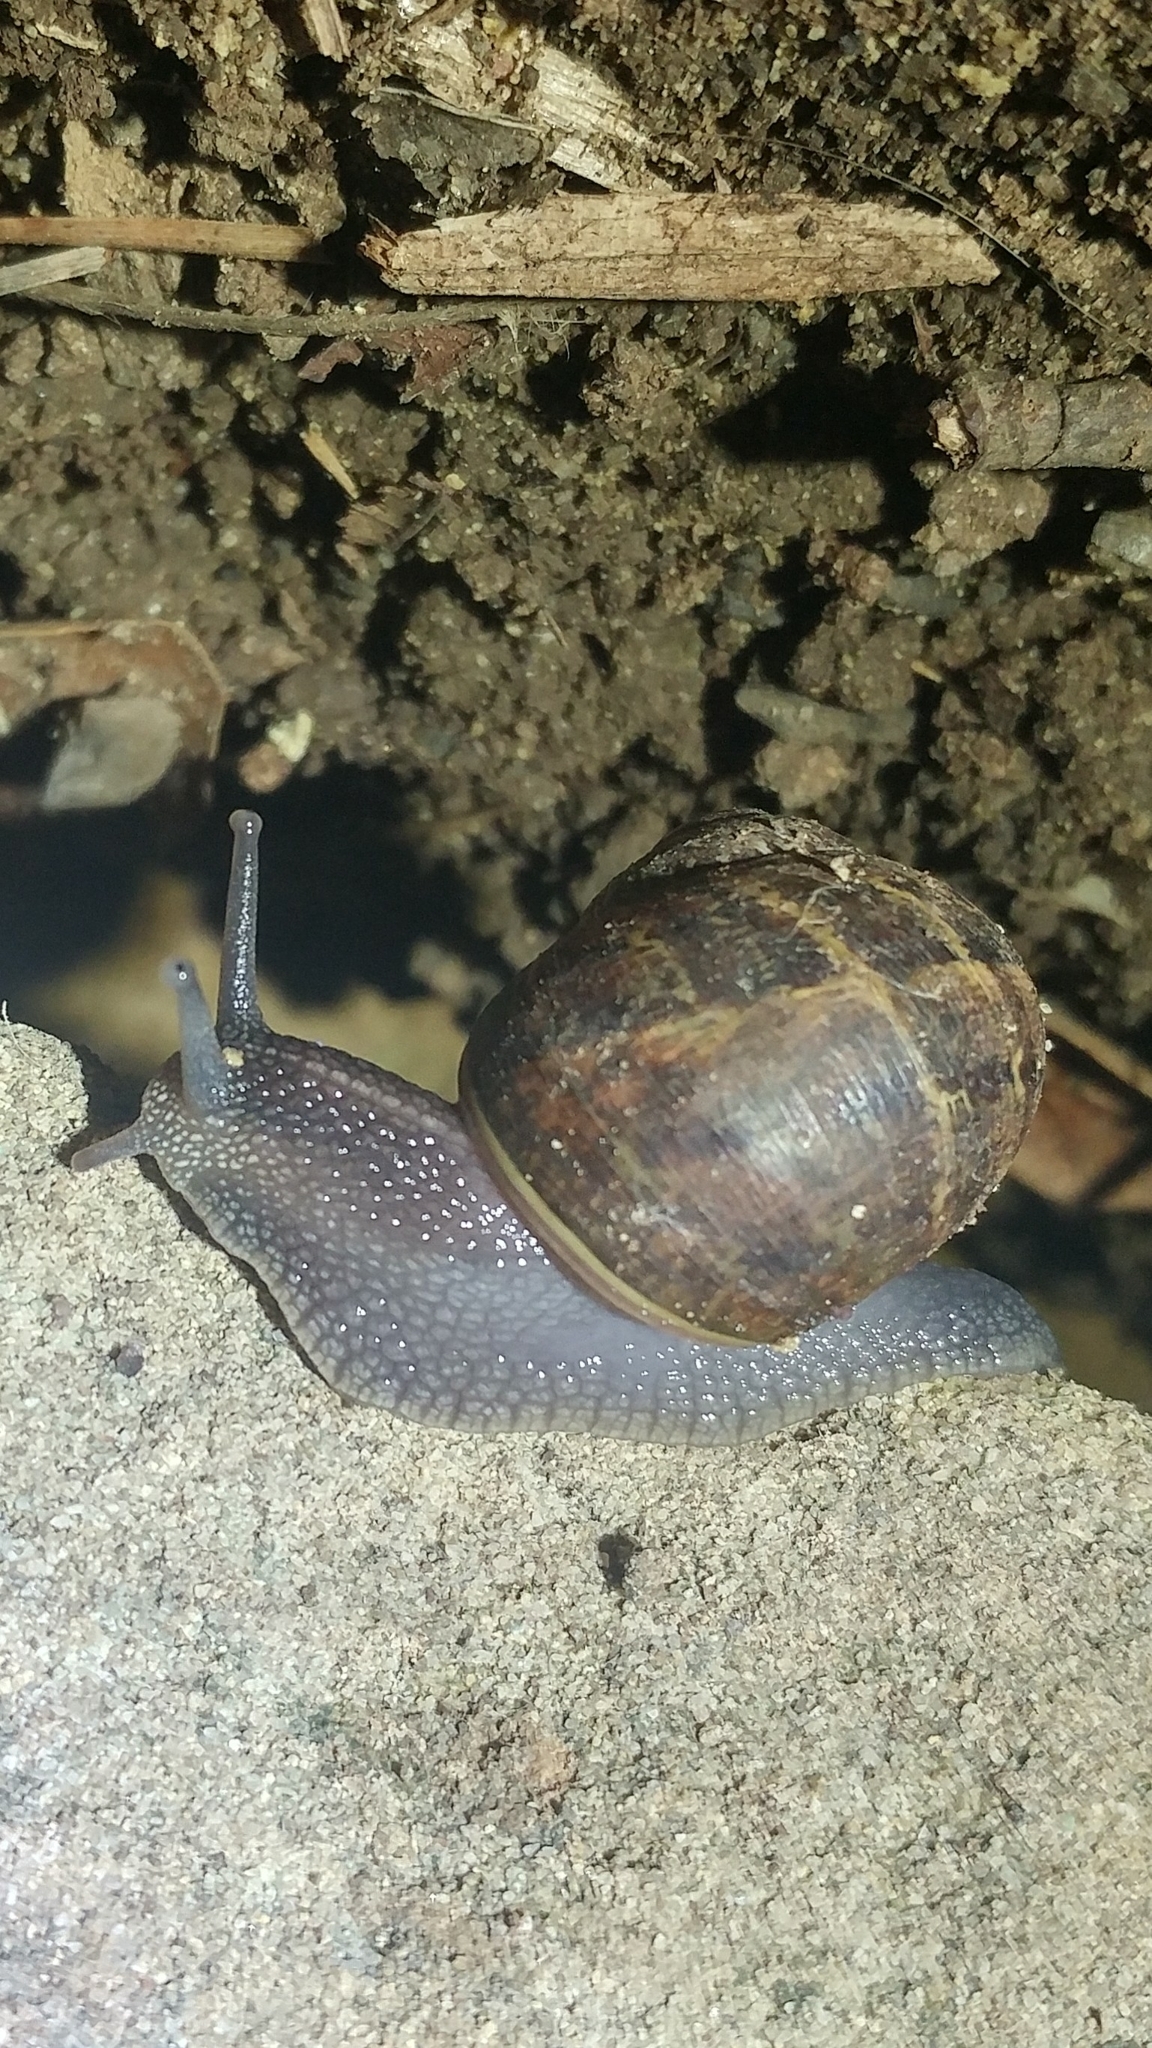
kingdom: Animalia
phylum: Mollusca
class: Gastropoda
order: Stylommatophora
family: Helicidae
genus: Cornu
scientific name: Cornu aspersum
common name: Brown garden snail
